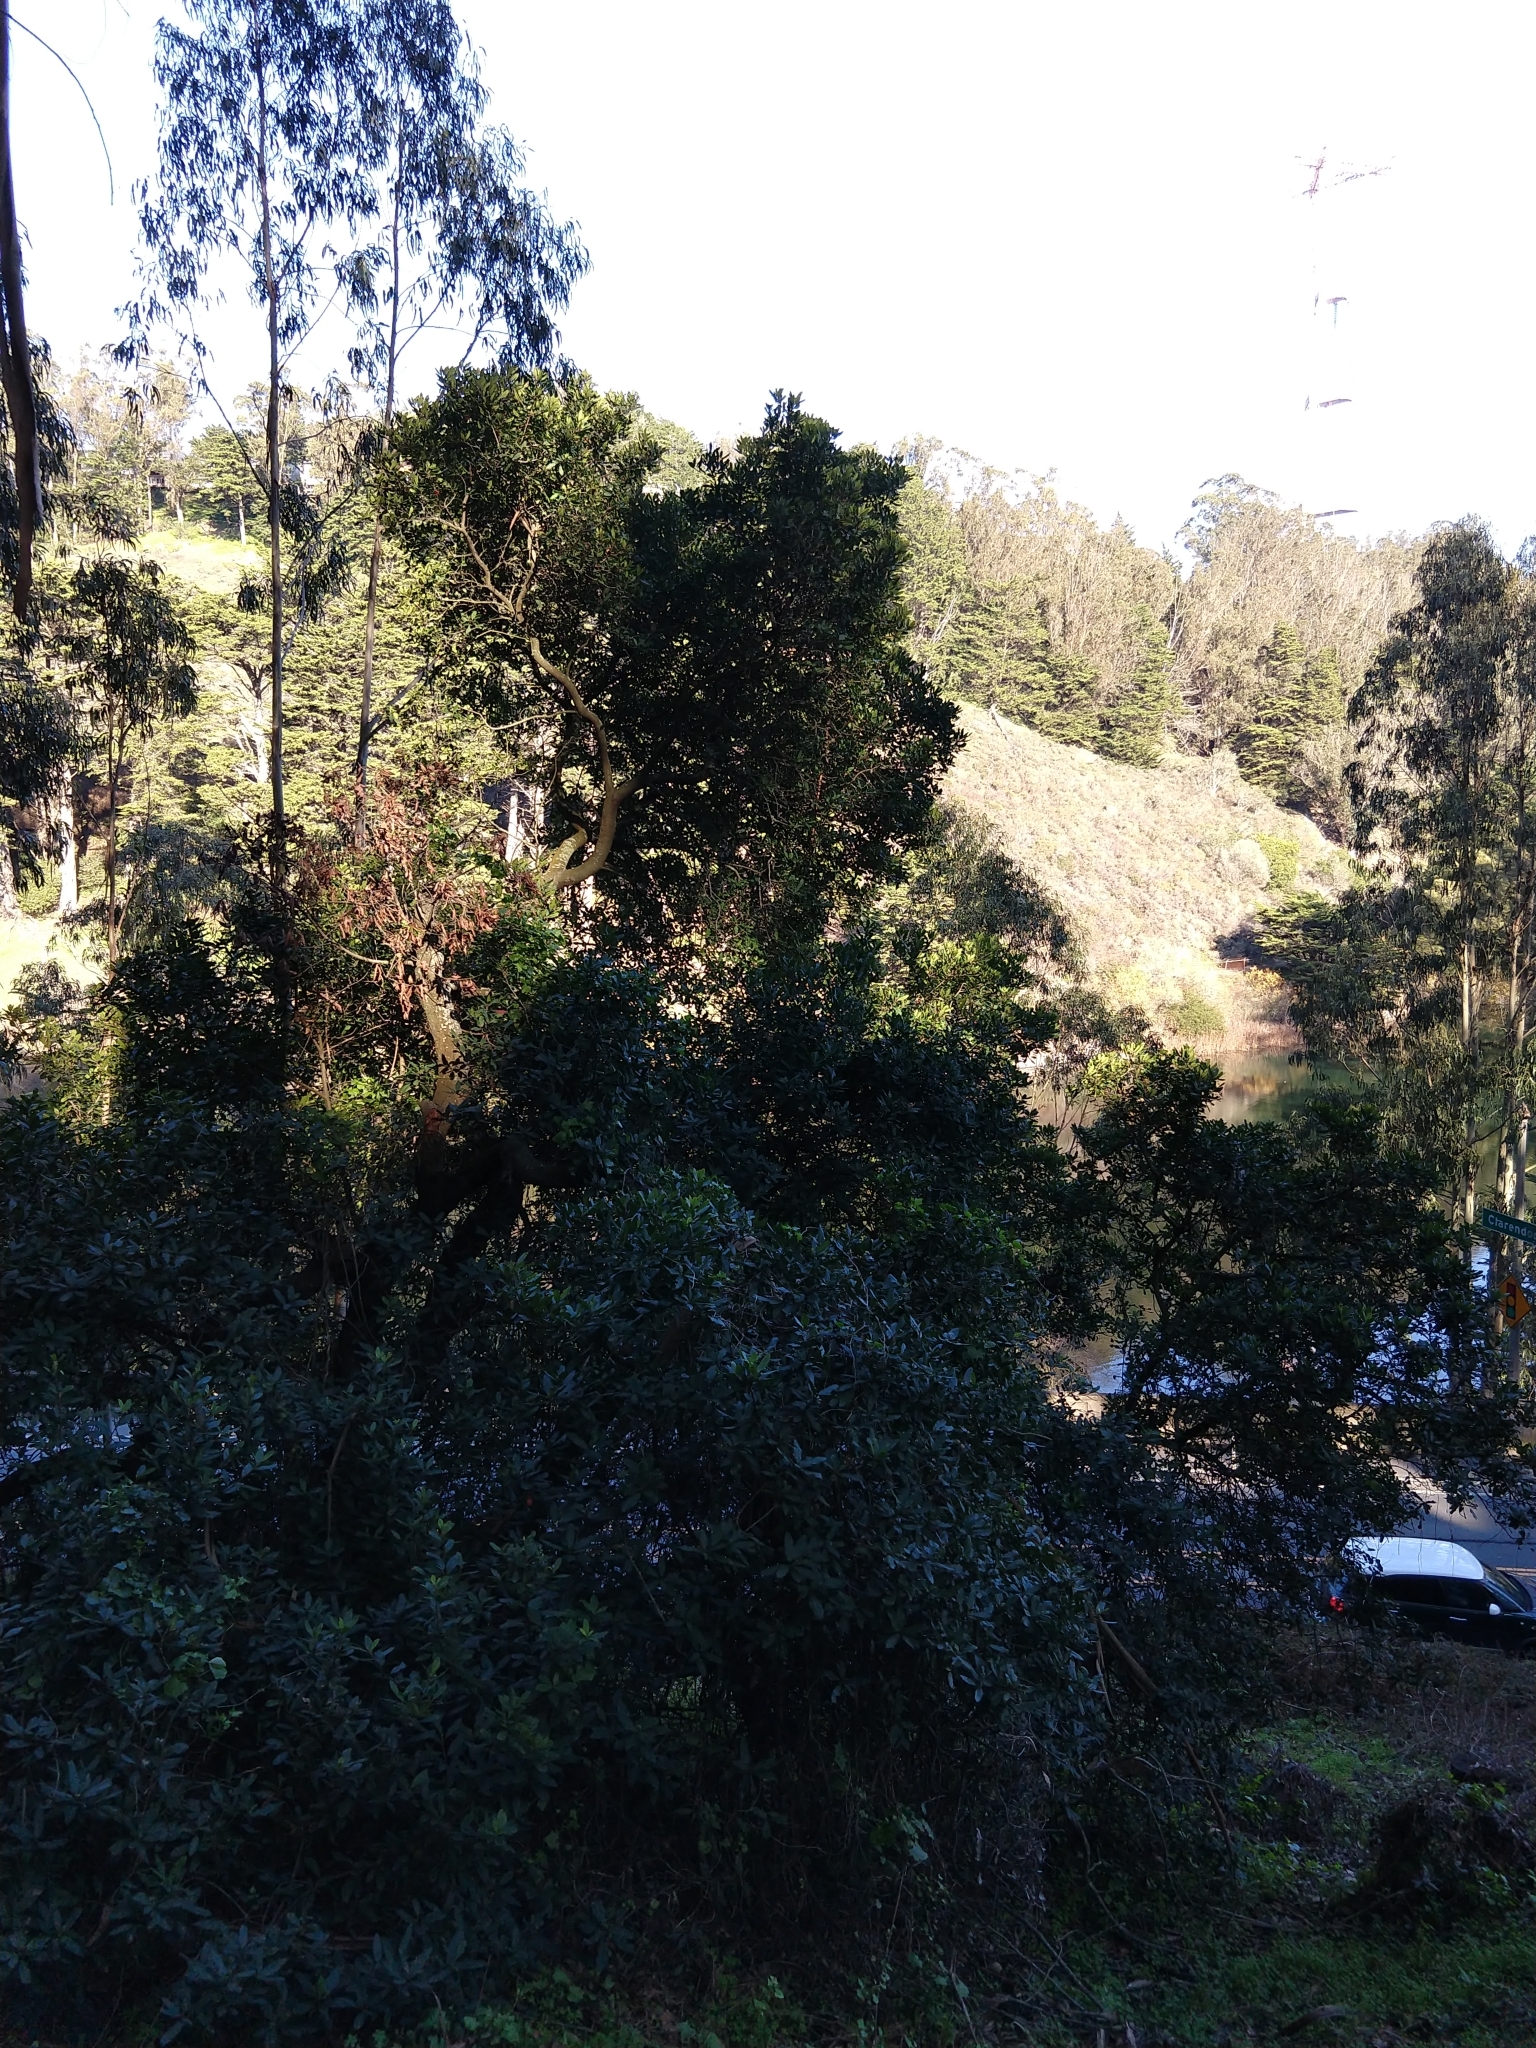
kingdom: Plantae
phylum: Tracheophyta
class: Magnoliopsida
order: Rosales
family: Rosaceae
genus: Heteromeles
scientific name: Heteromeles arbutifolia
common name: California-holly
